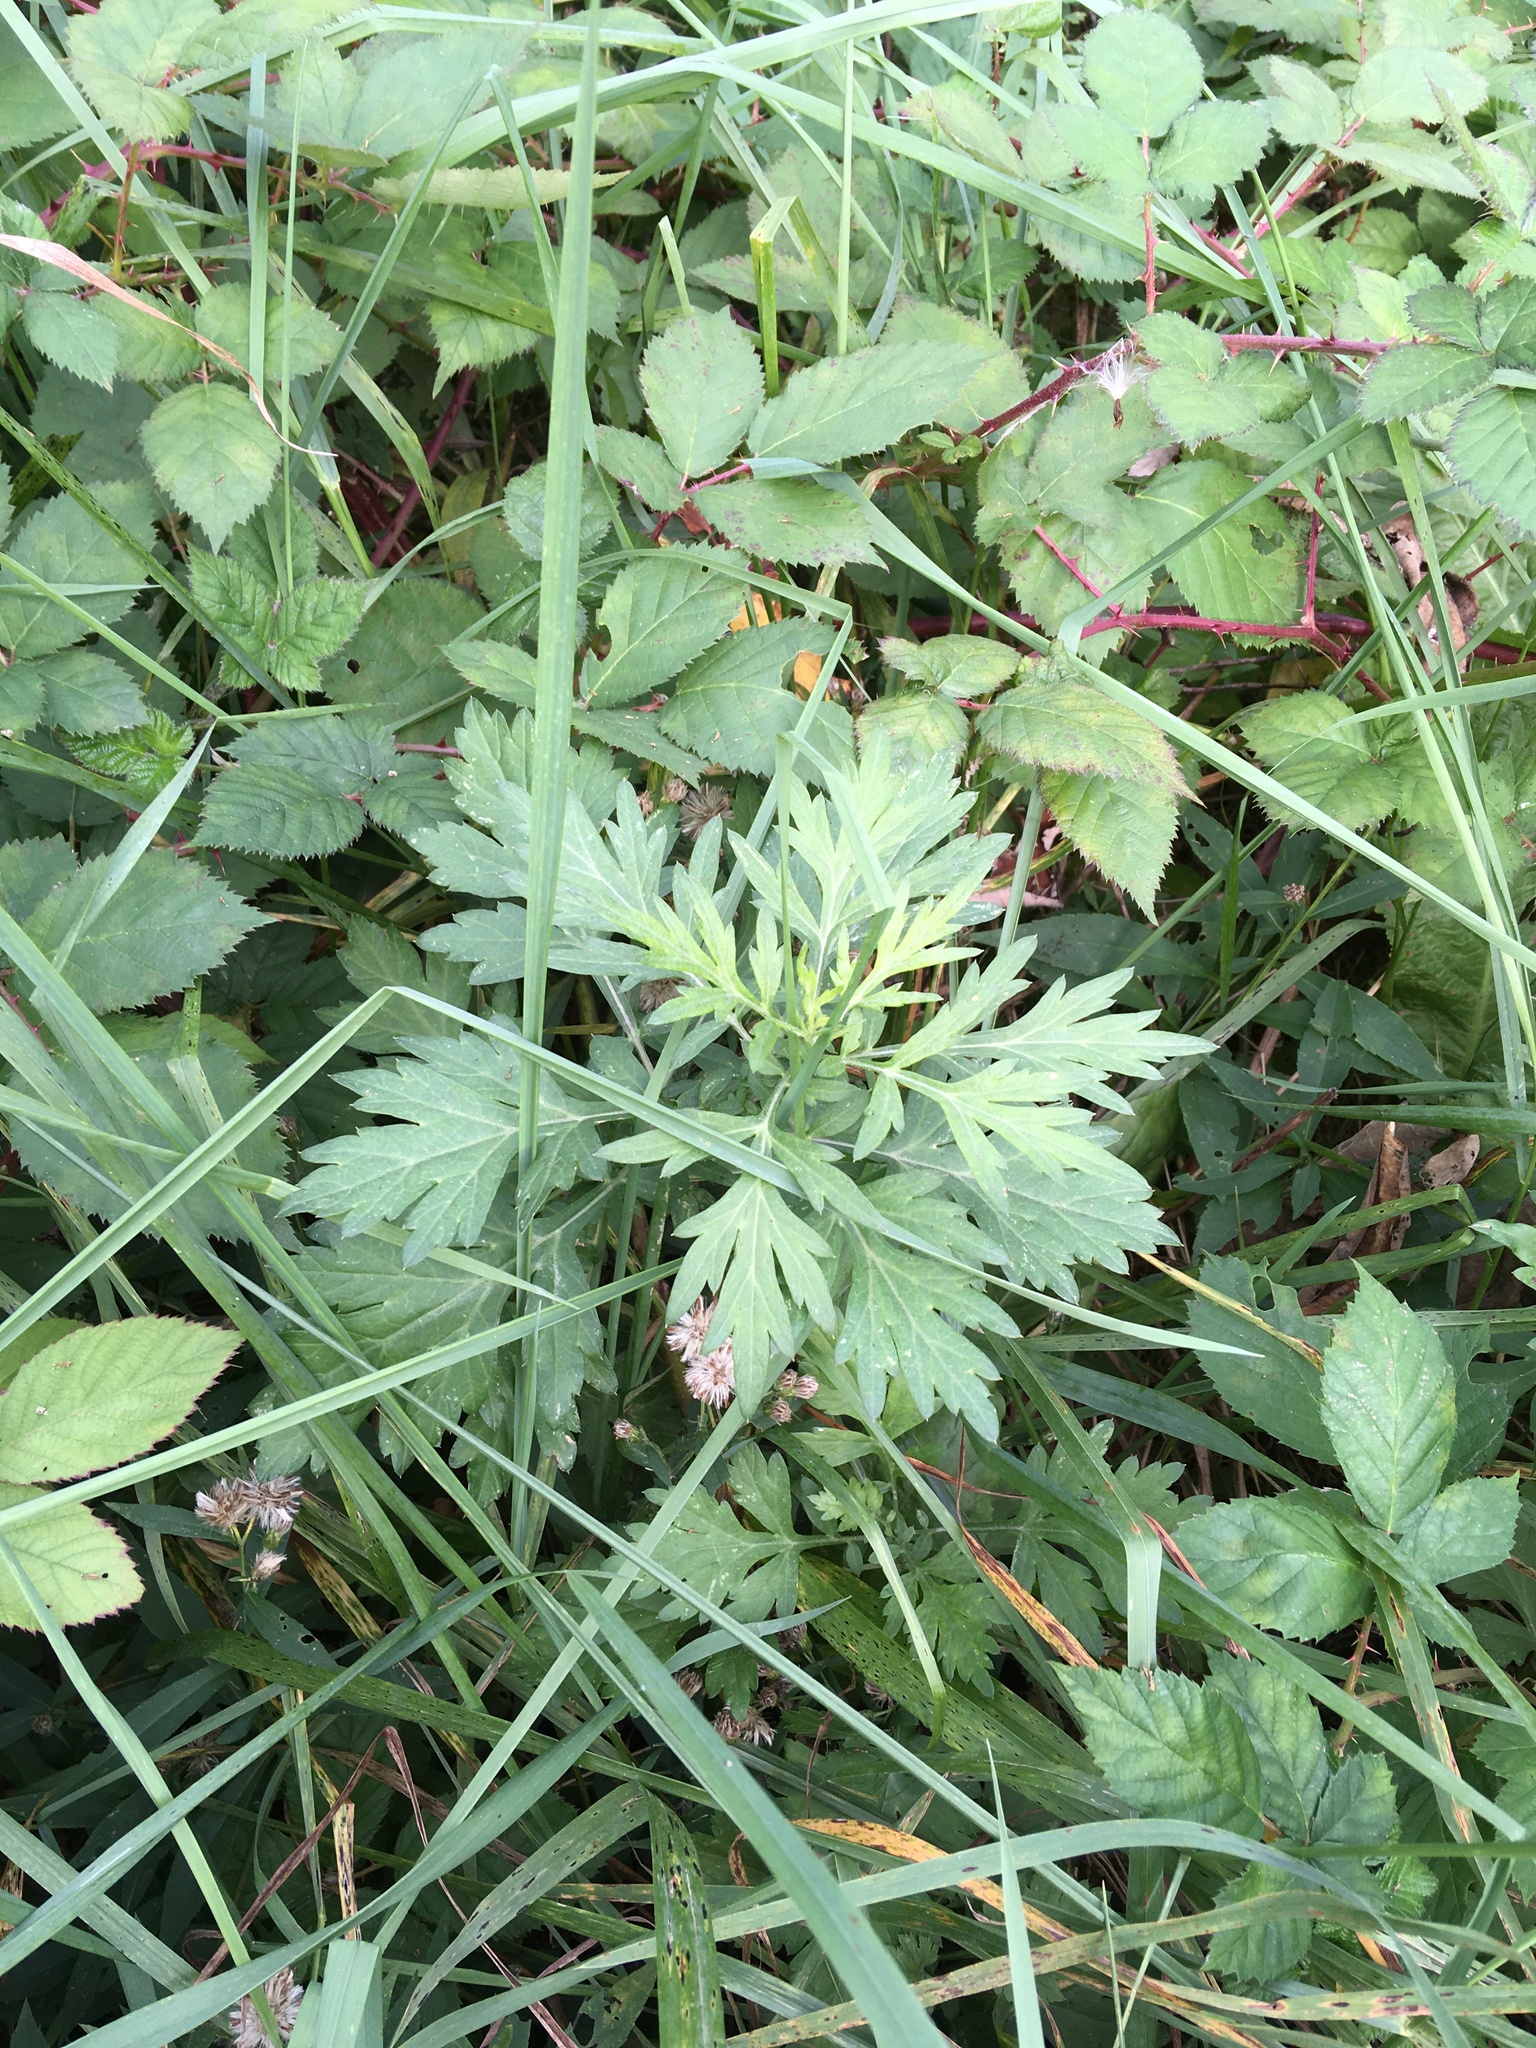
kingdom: Plantae
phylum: Tracheophyta
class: Magnoliopsida
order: Asterales
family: Asteraceae
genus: Artemisia
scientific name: Artemisia vulgaris
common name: Mugwort
